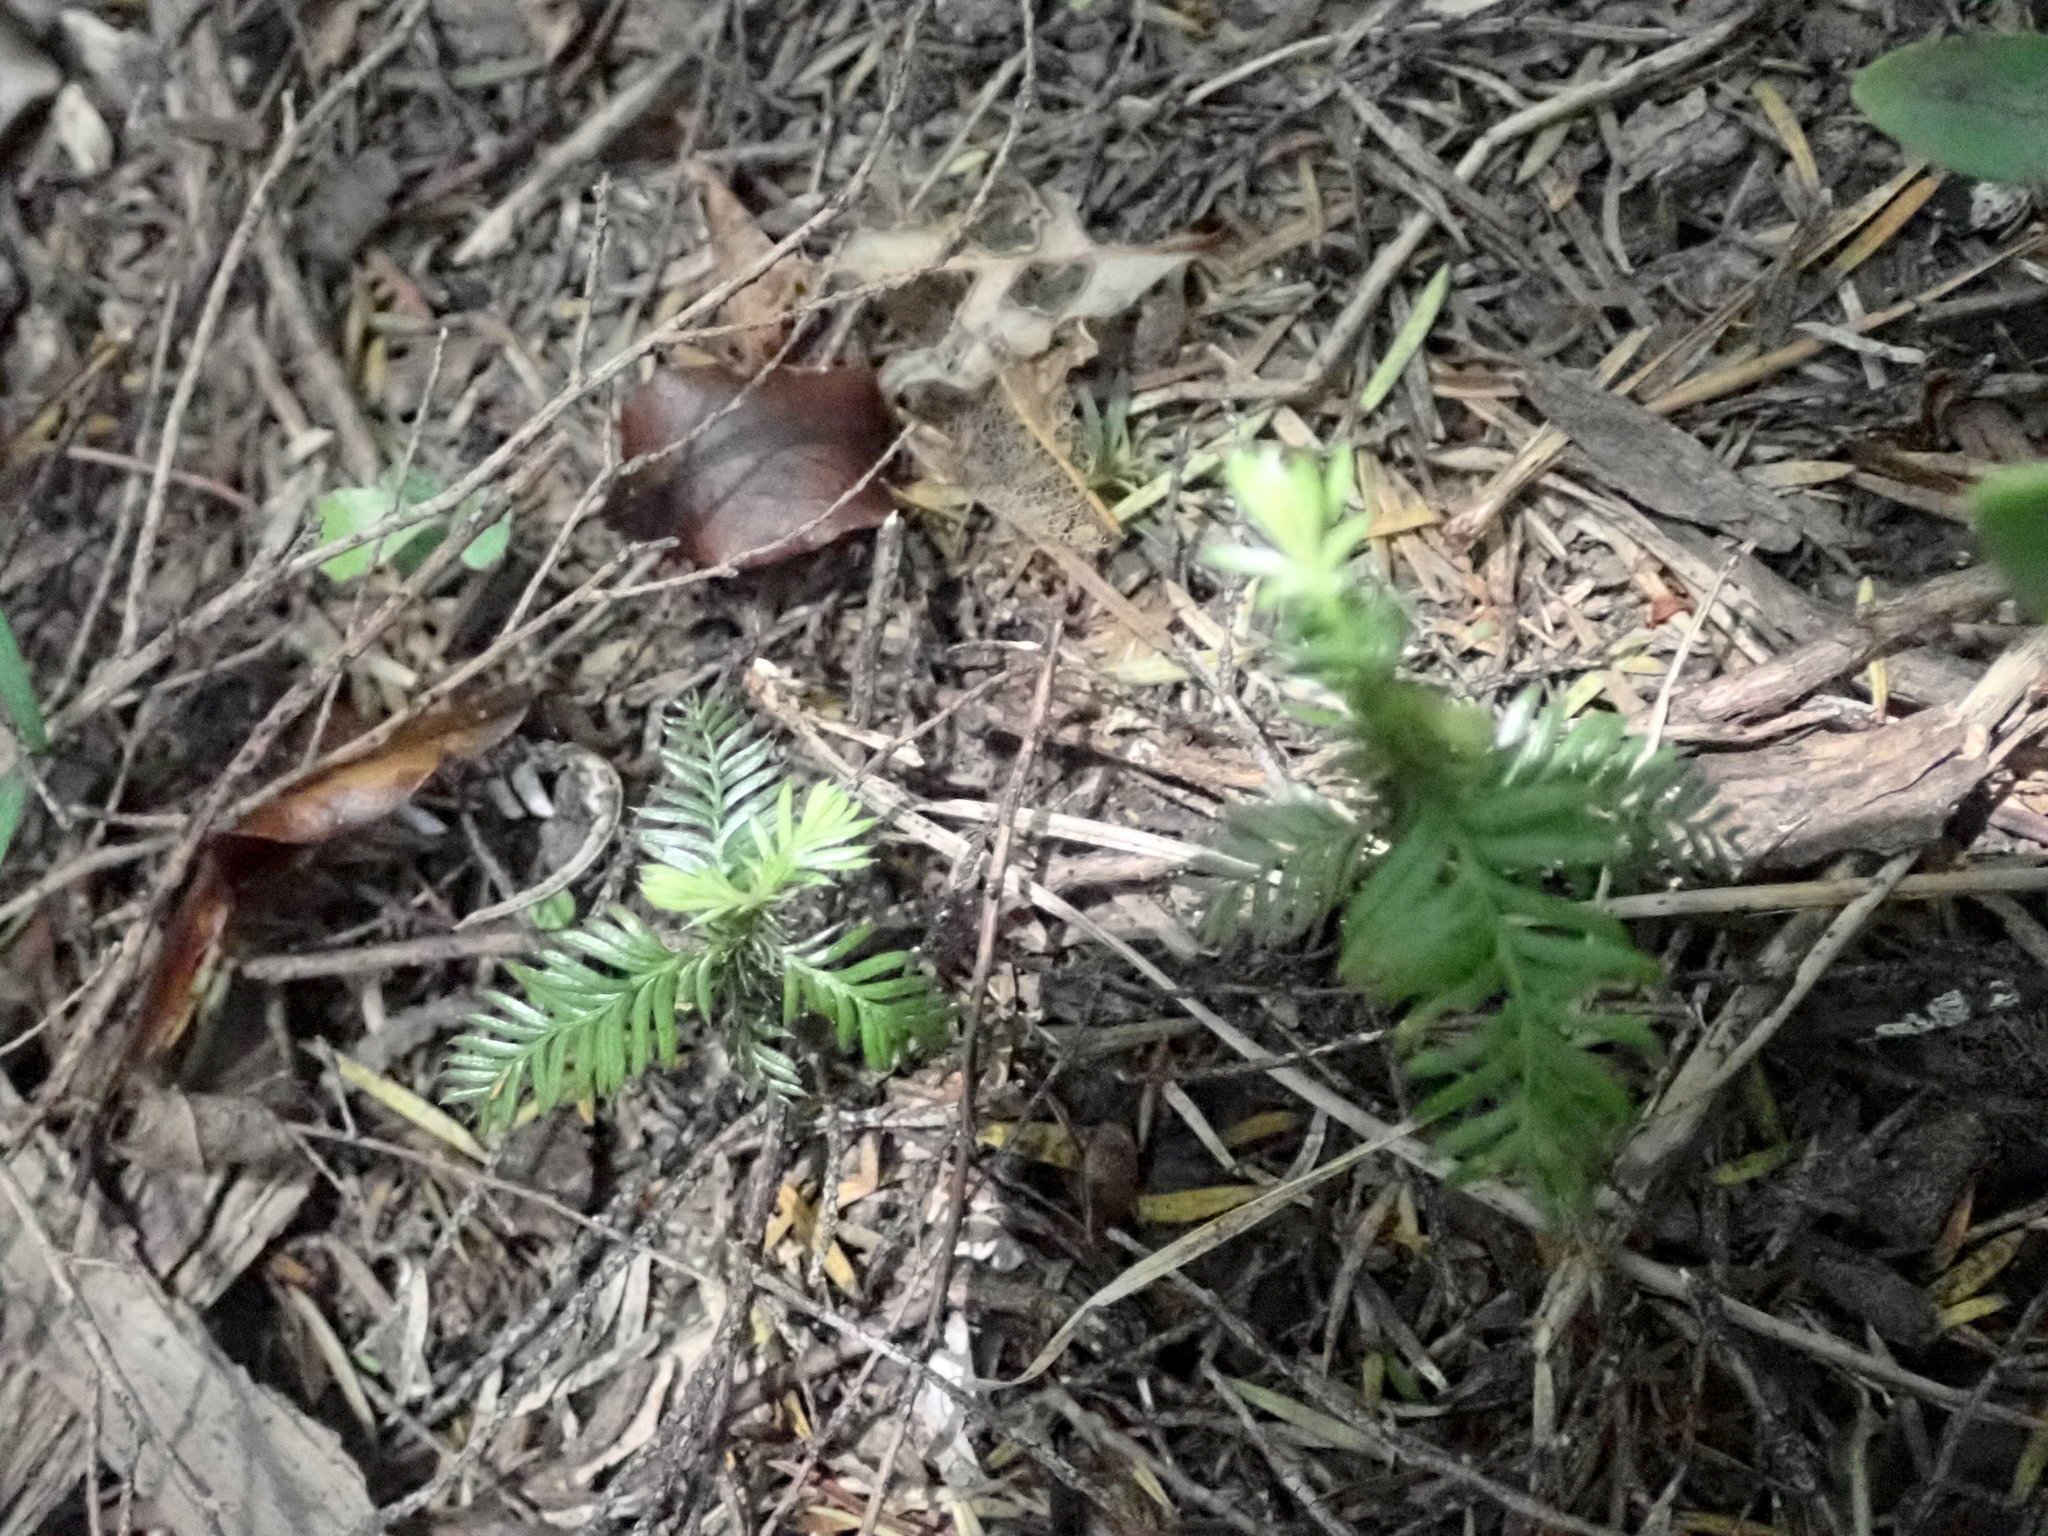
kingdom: Plantae
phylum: Tracheophyta
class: Pinopsida
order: Pinales
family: Podocarpaceae
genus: Dacrycarpus
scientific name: Dacrycarpus dacrydioides
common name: White pine
